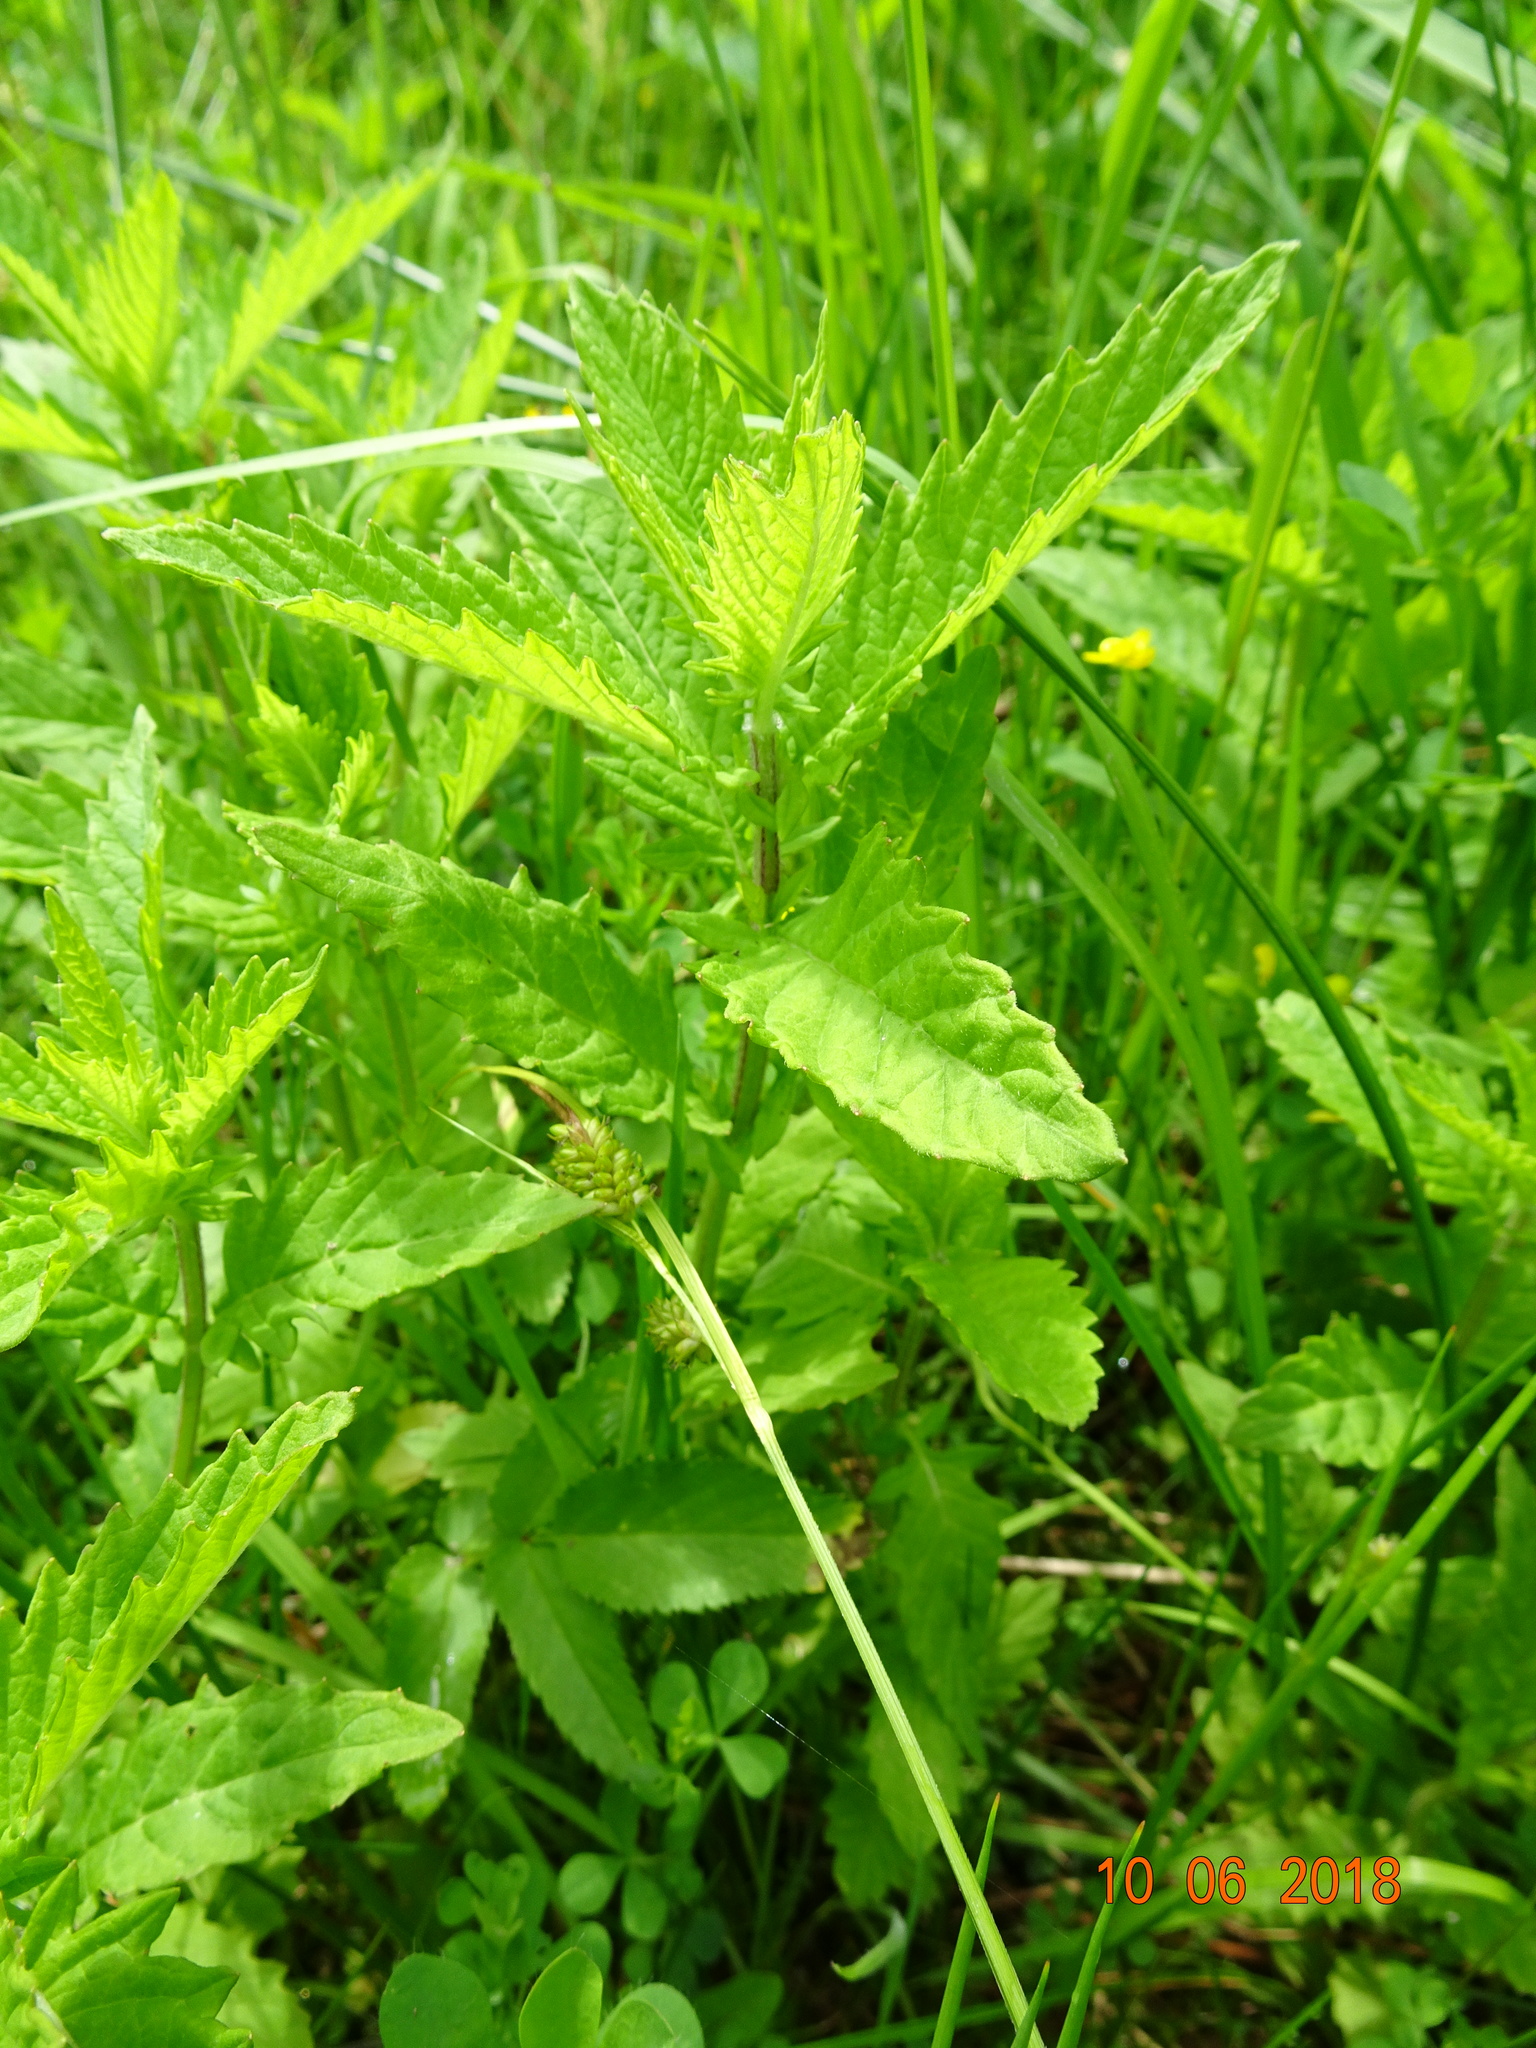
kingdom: Plantae
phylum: Tracheophyta
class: Magnoliopsida
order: Lamiales
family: Lamiaceae
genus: Lycopus
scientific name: Lycopus europaeus
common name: European bugleweed
